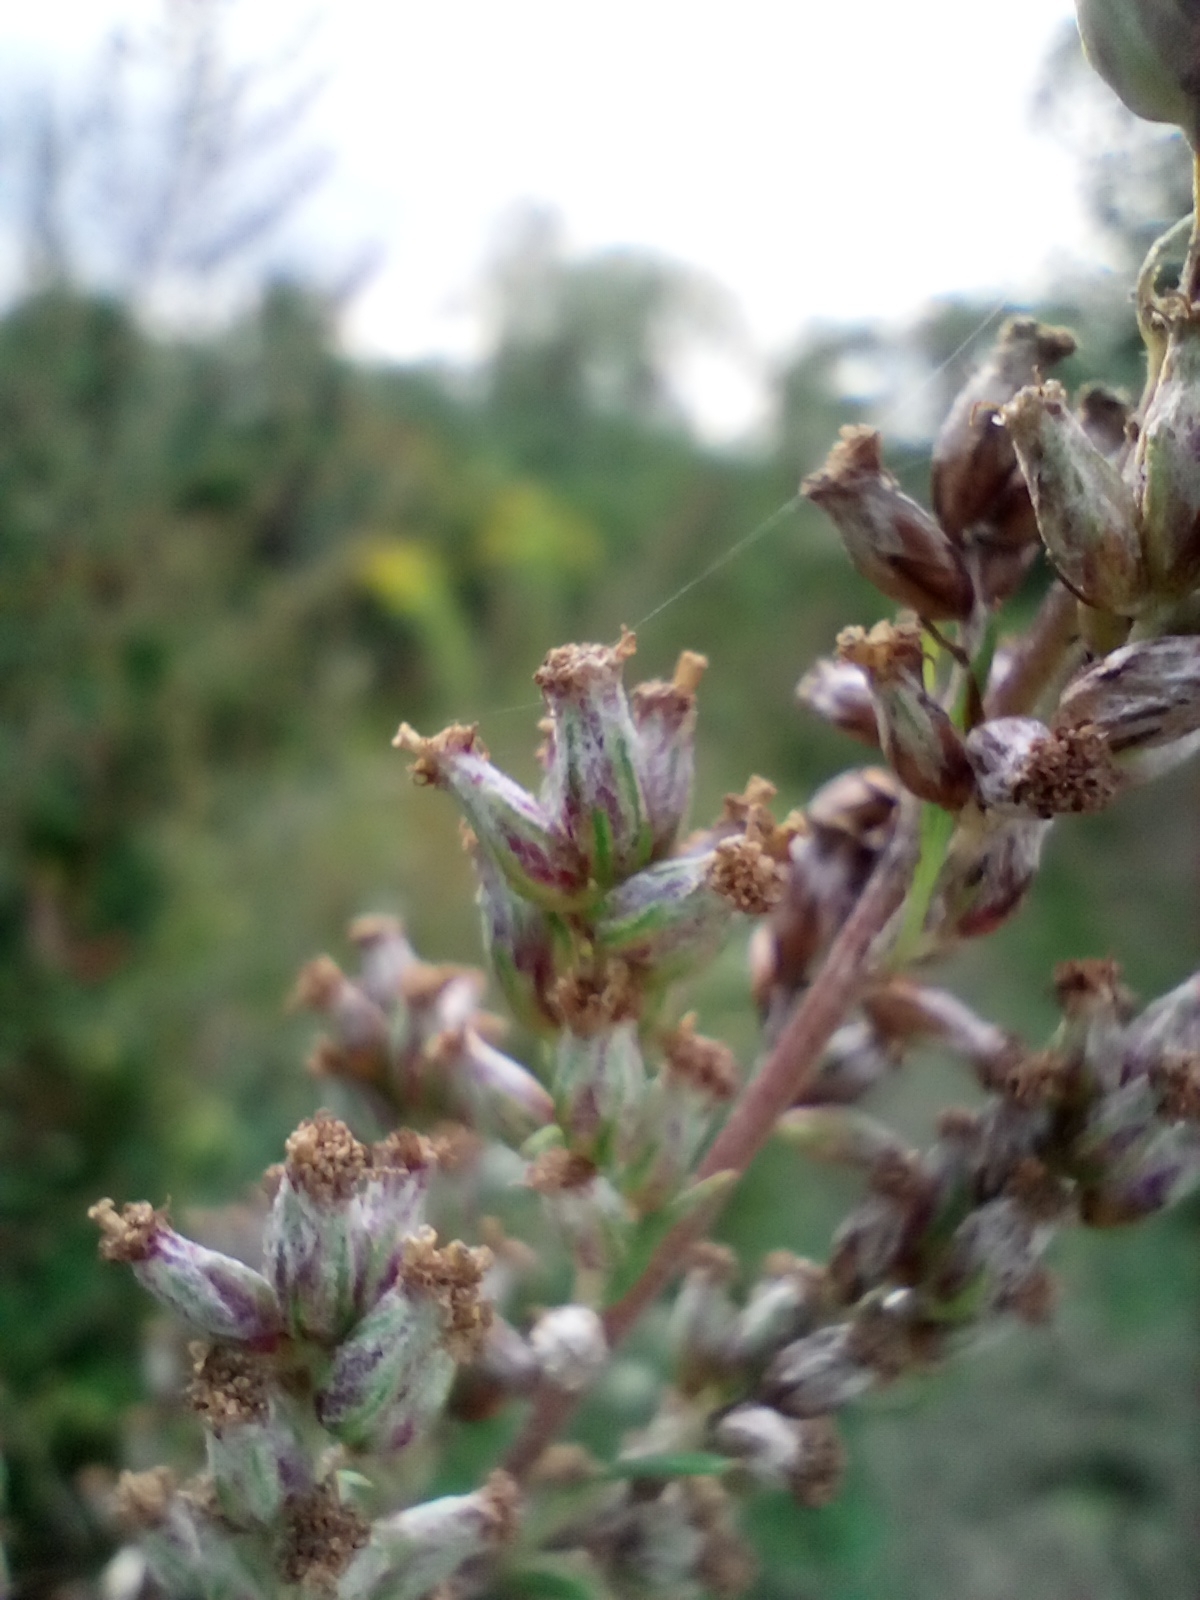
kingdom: Plantae
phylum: Tracheophyta
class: Magnoliopsida
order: Asterales
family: Asteraceae
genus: Artemisia
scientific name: Artemisia vulgaris
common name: Mugwort
